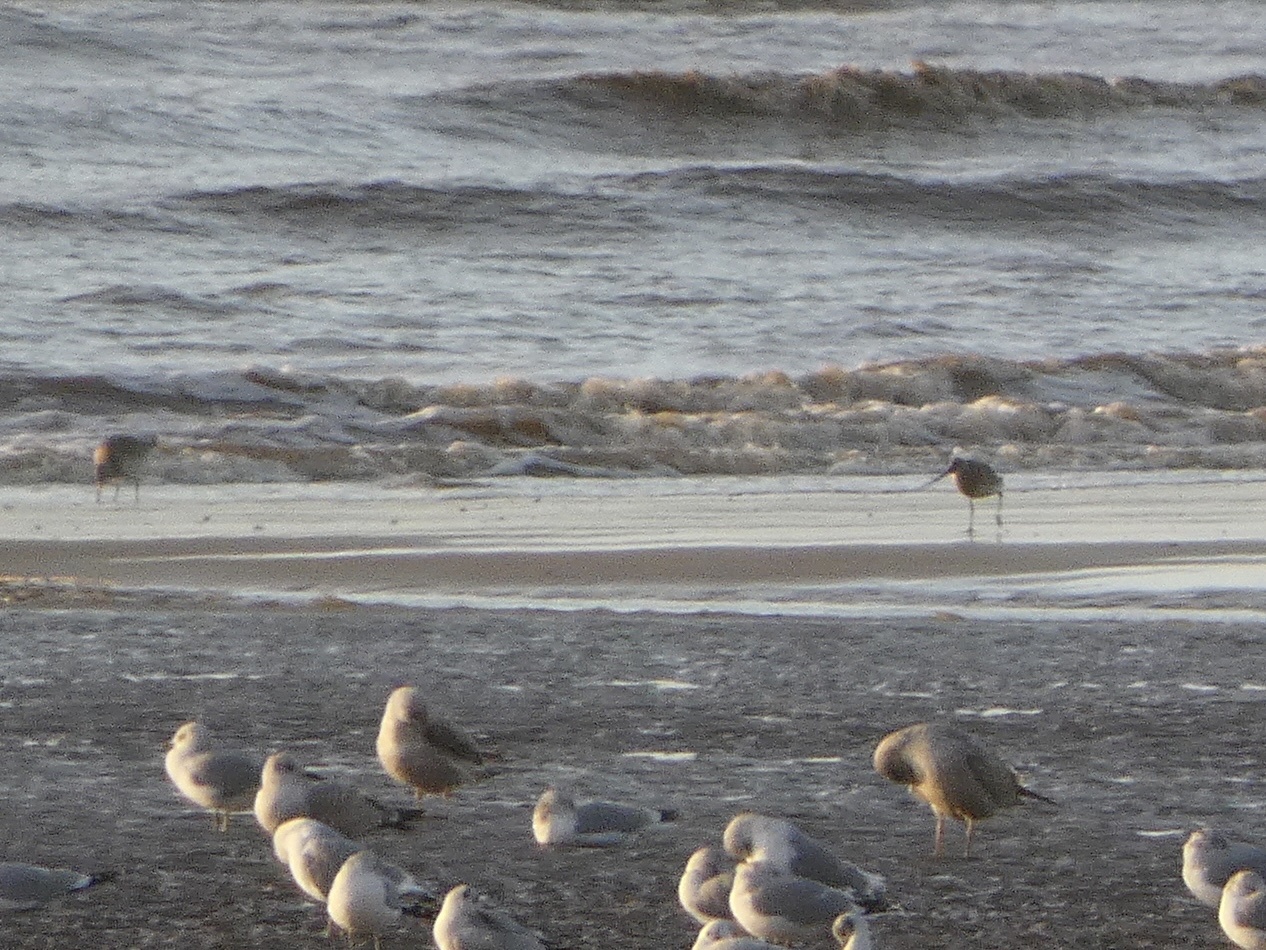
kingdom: Animalia
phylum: Chordata
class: Aves
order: Charadriiformes
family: Scolopacidae
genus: Limosa
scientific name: Limosa lapponica
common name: Bar-tailed godwit
